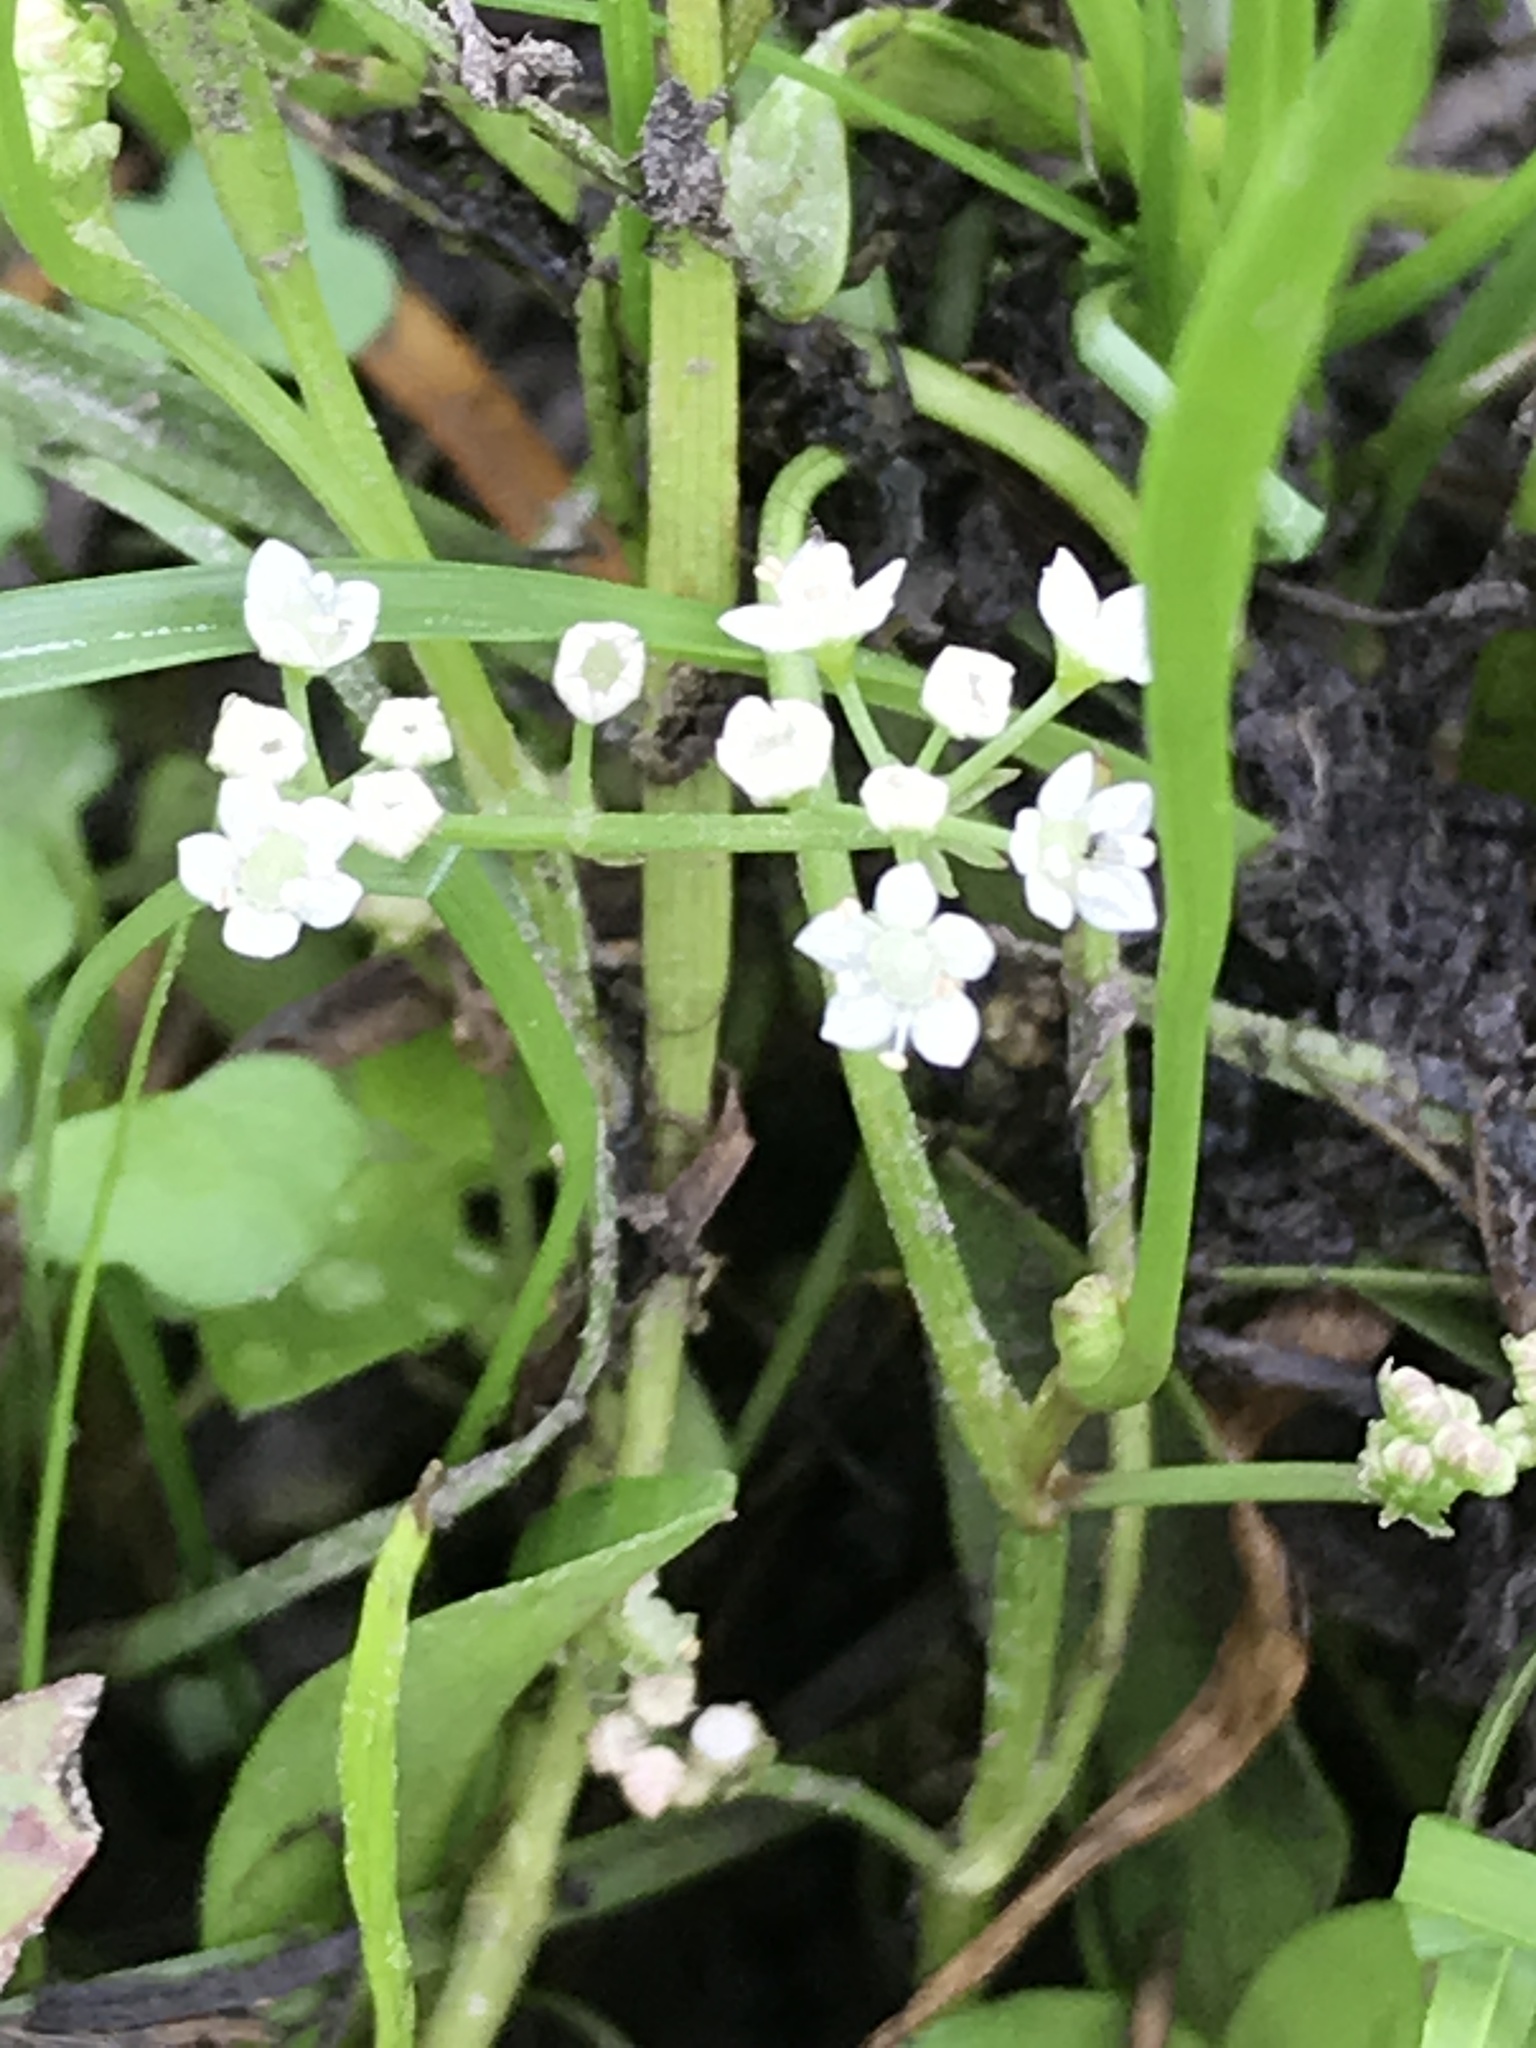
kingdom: Plantae
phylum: Tracheophyta
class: Magnoliopsida
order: Apiales
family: Apiaceae
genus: Limnosciadium
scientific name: Limnosciadium pinnatum
